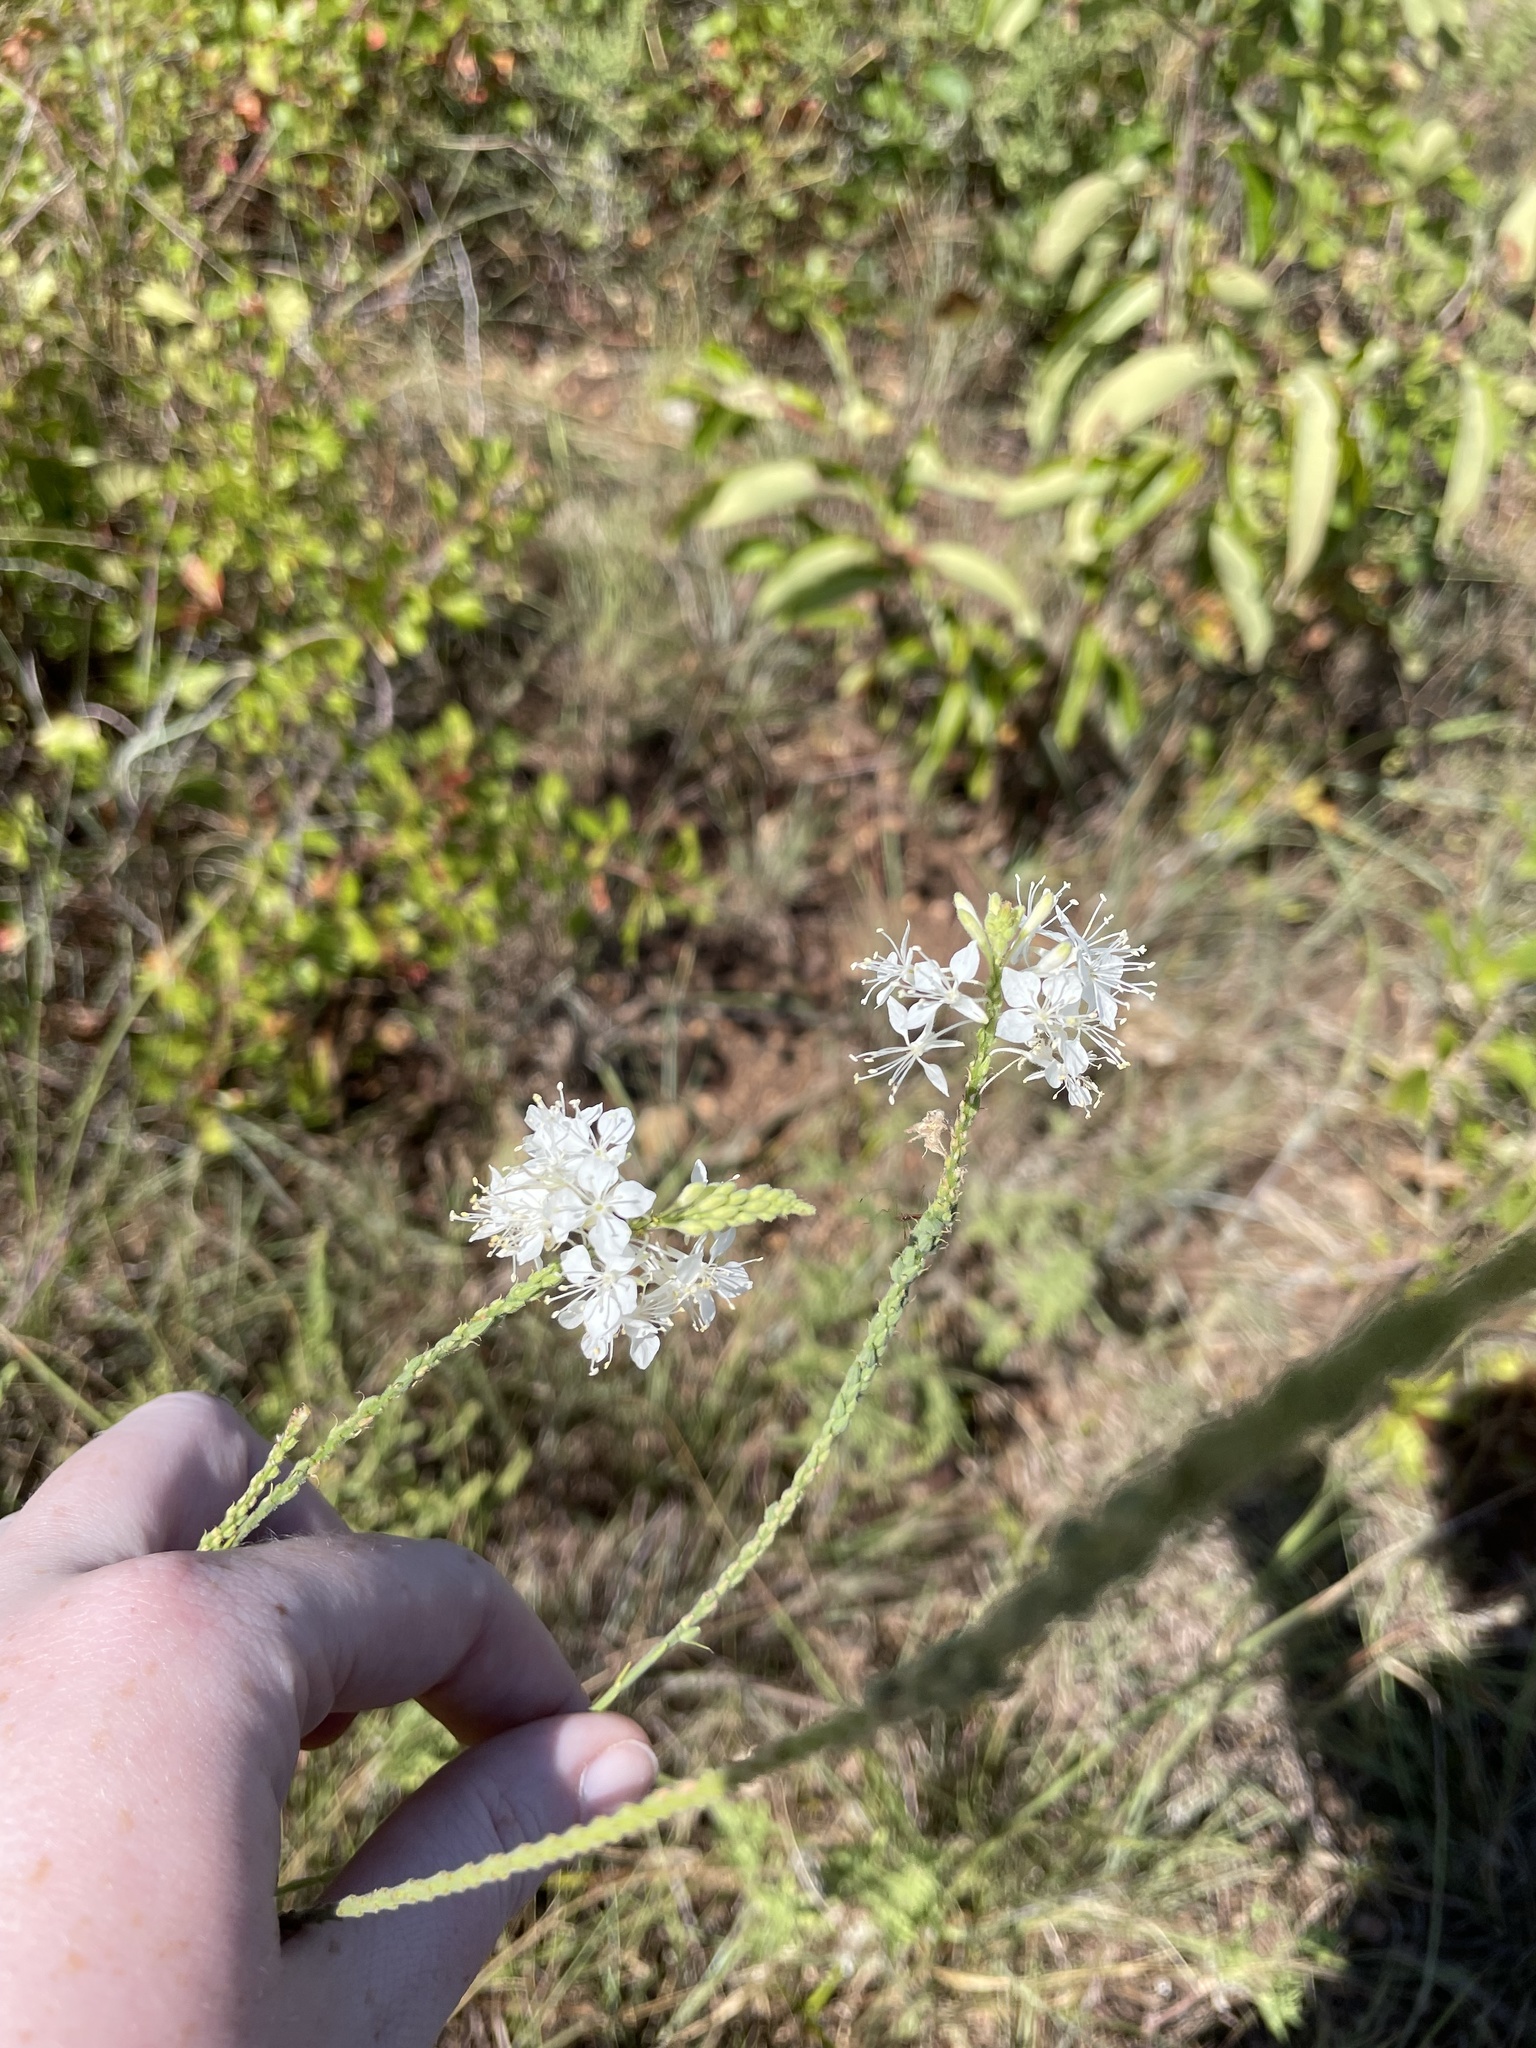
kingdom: Plantae
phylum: Tracheophyta
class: Magnoliopsida
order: Myrtales
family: Onagraceae
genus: Oenothera
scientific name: Oenothera glaucifolia
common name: False gaura
